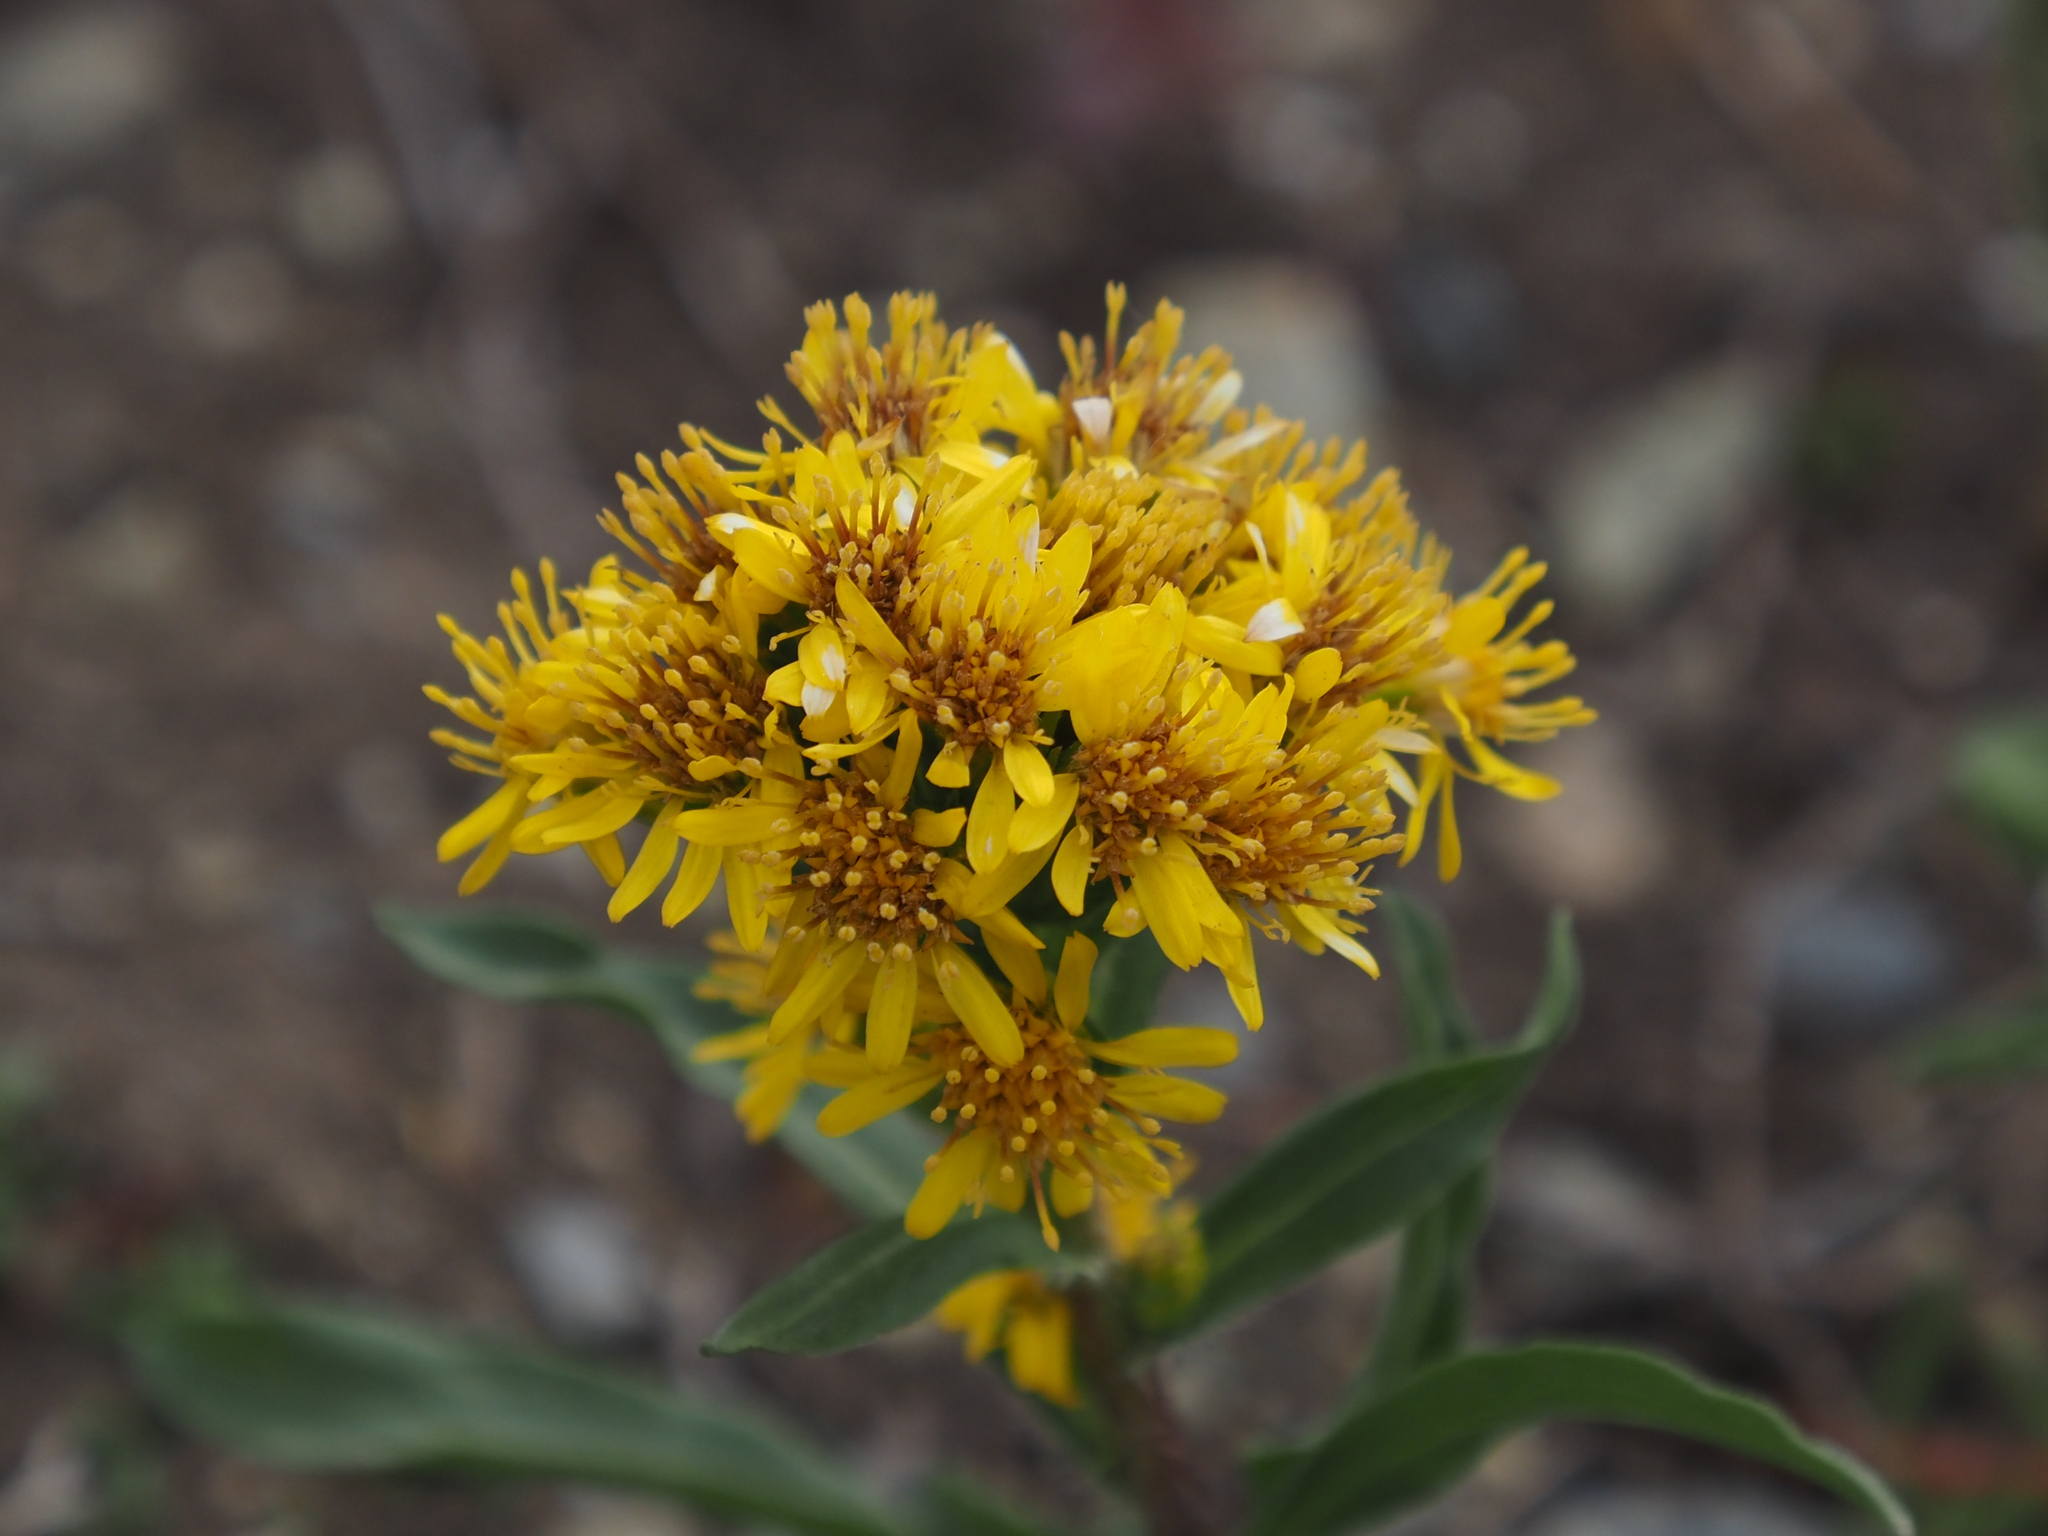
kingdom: Plantae
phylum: Tracheophyta
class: Magnoliopsida
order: Asterales
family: Asteraceae
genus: Solidago
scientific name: Solidago multiradiata
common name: Northern goldenrod
